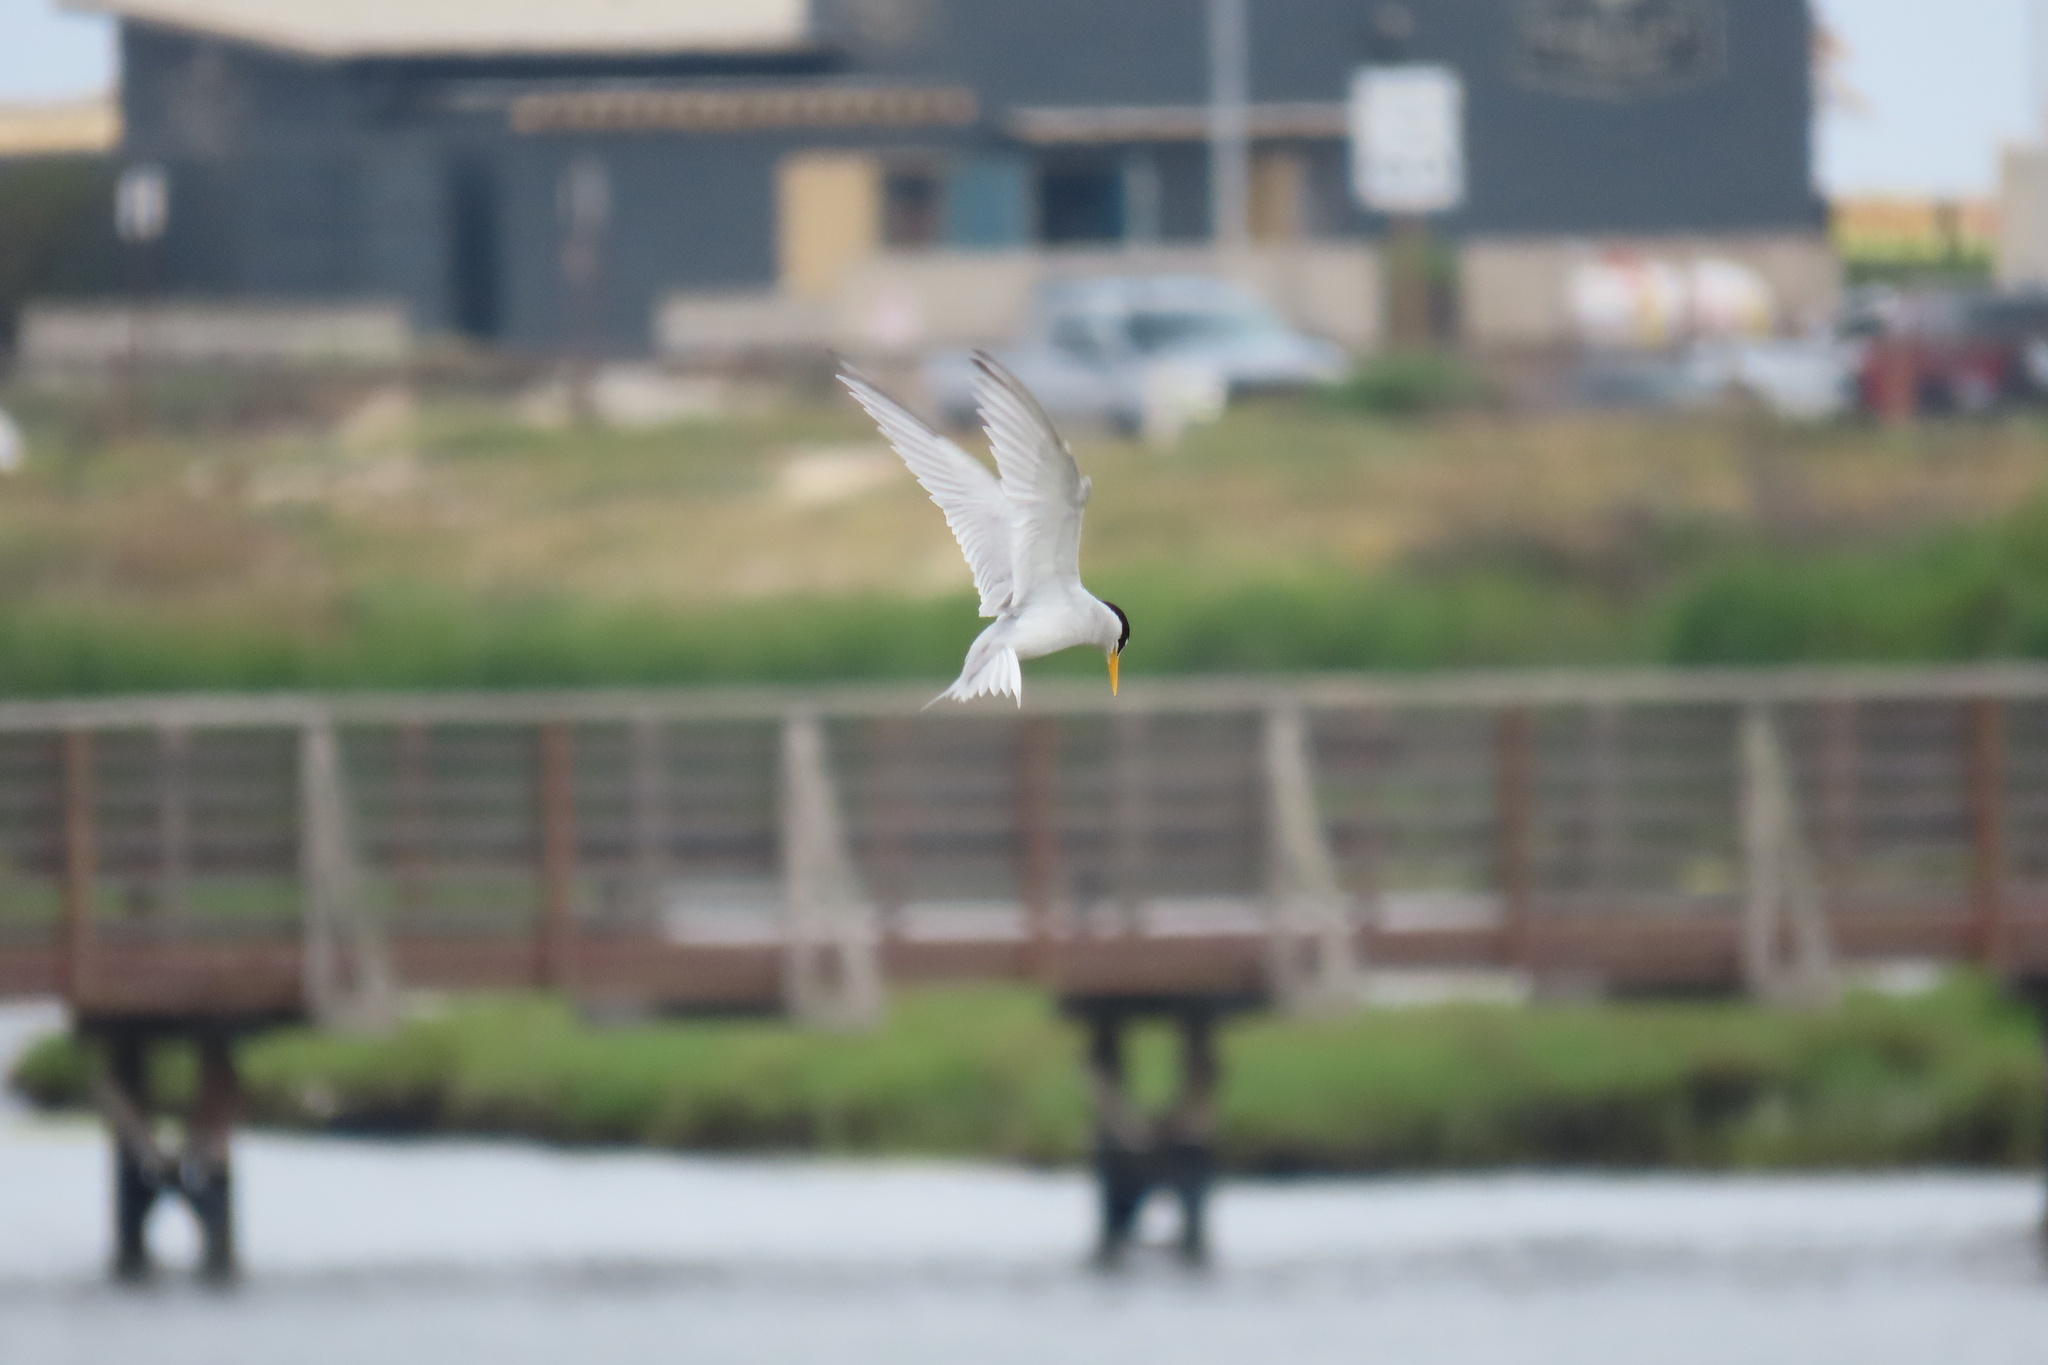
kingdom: Animalia
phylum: Chordata
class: Aves
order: Charadriiformes
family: Laridae
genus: Sternula
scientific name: Sternula antillarum
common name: Least tern
